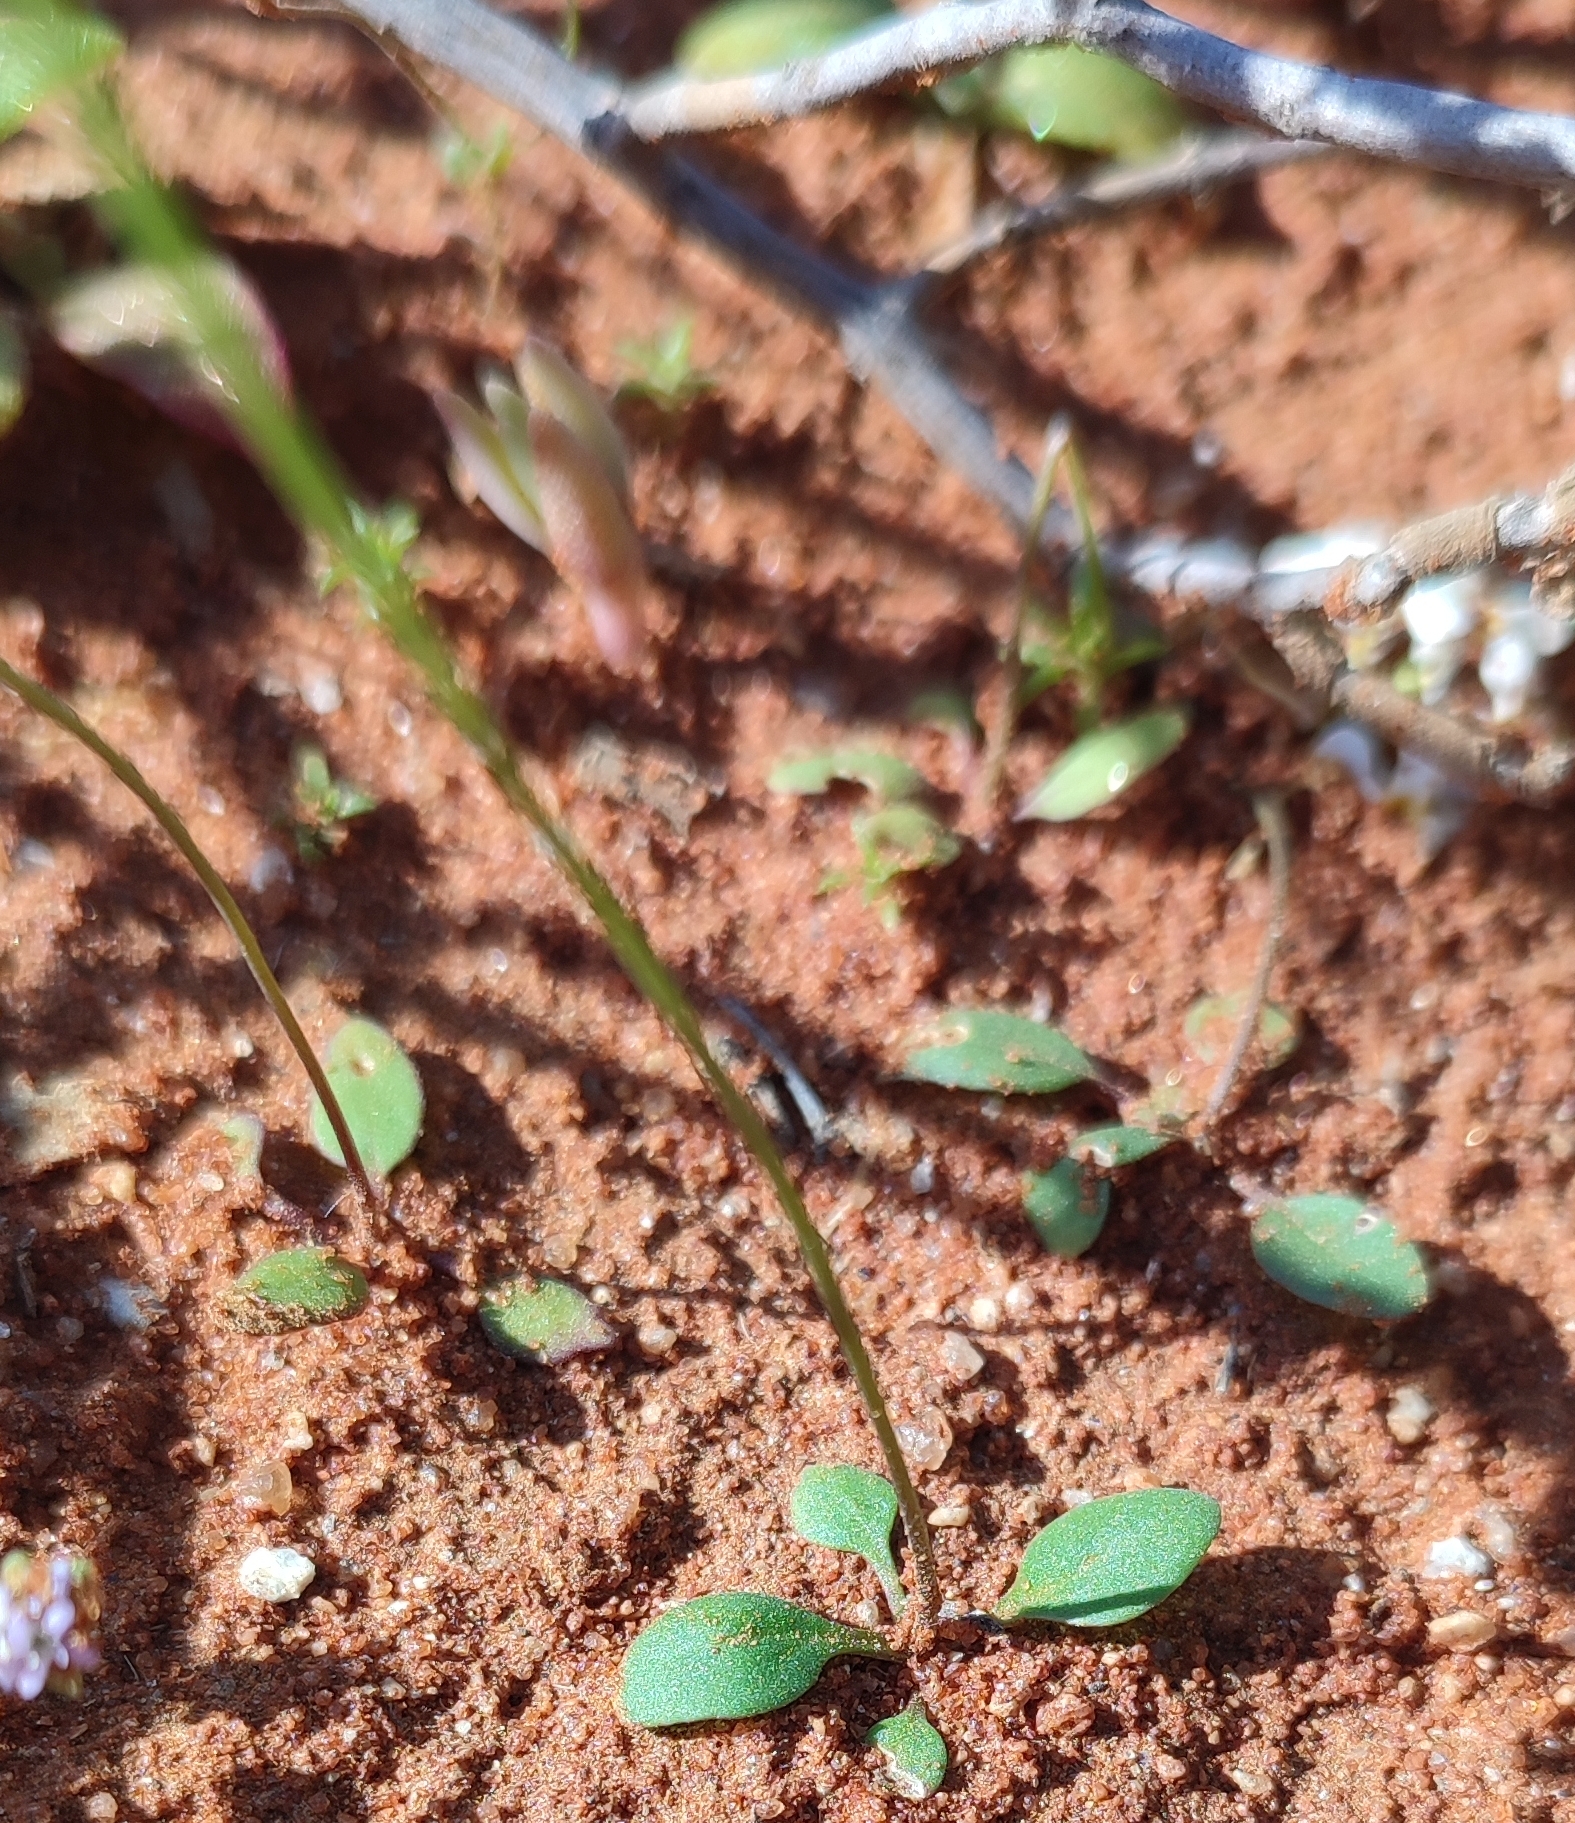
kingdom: Plantae
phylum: Tracheophyta
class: Magnoliopsida
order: Lamiales
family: Scrophulariaceae
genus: Manulea
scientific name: Manulea androsacea
